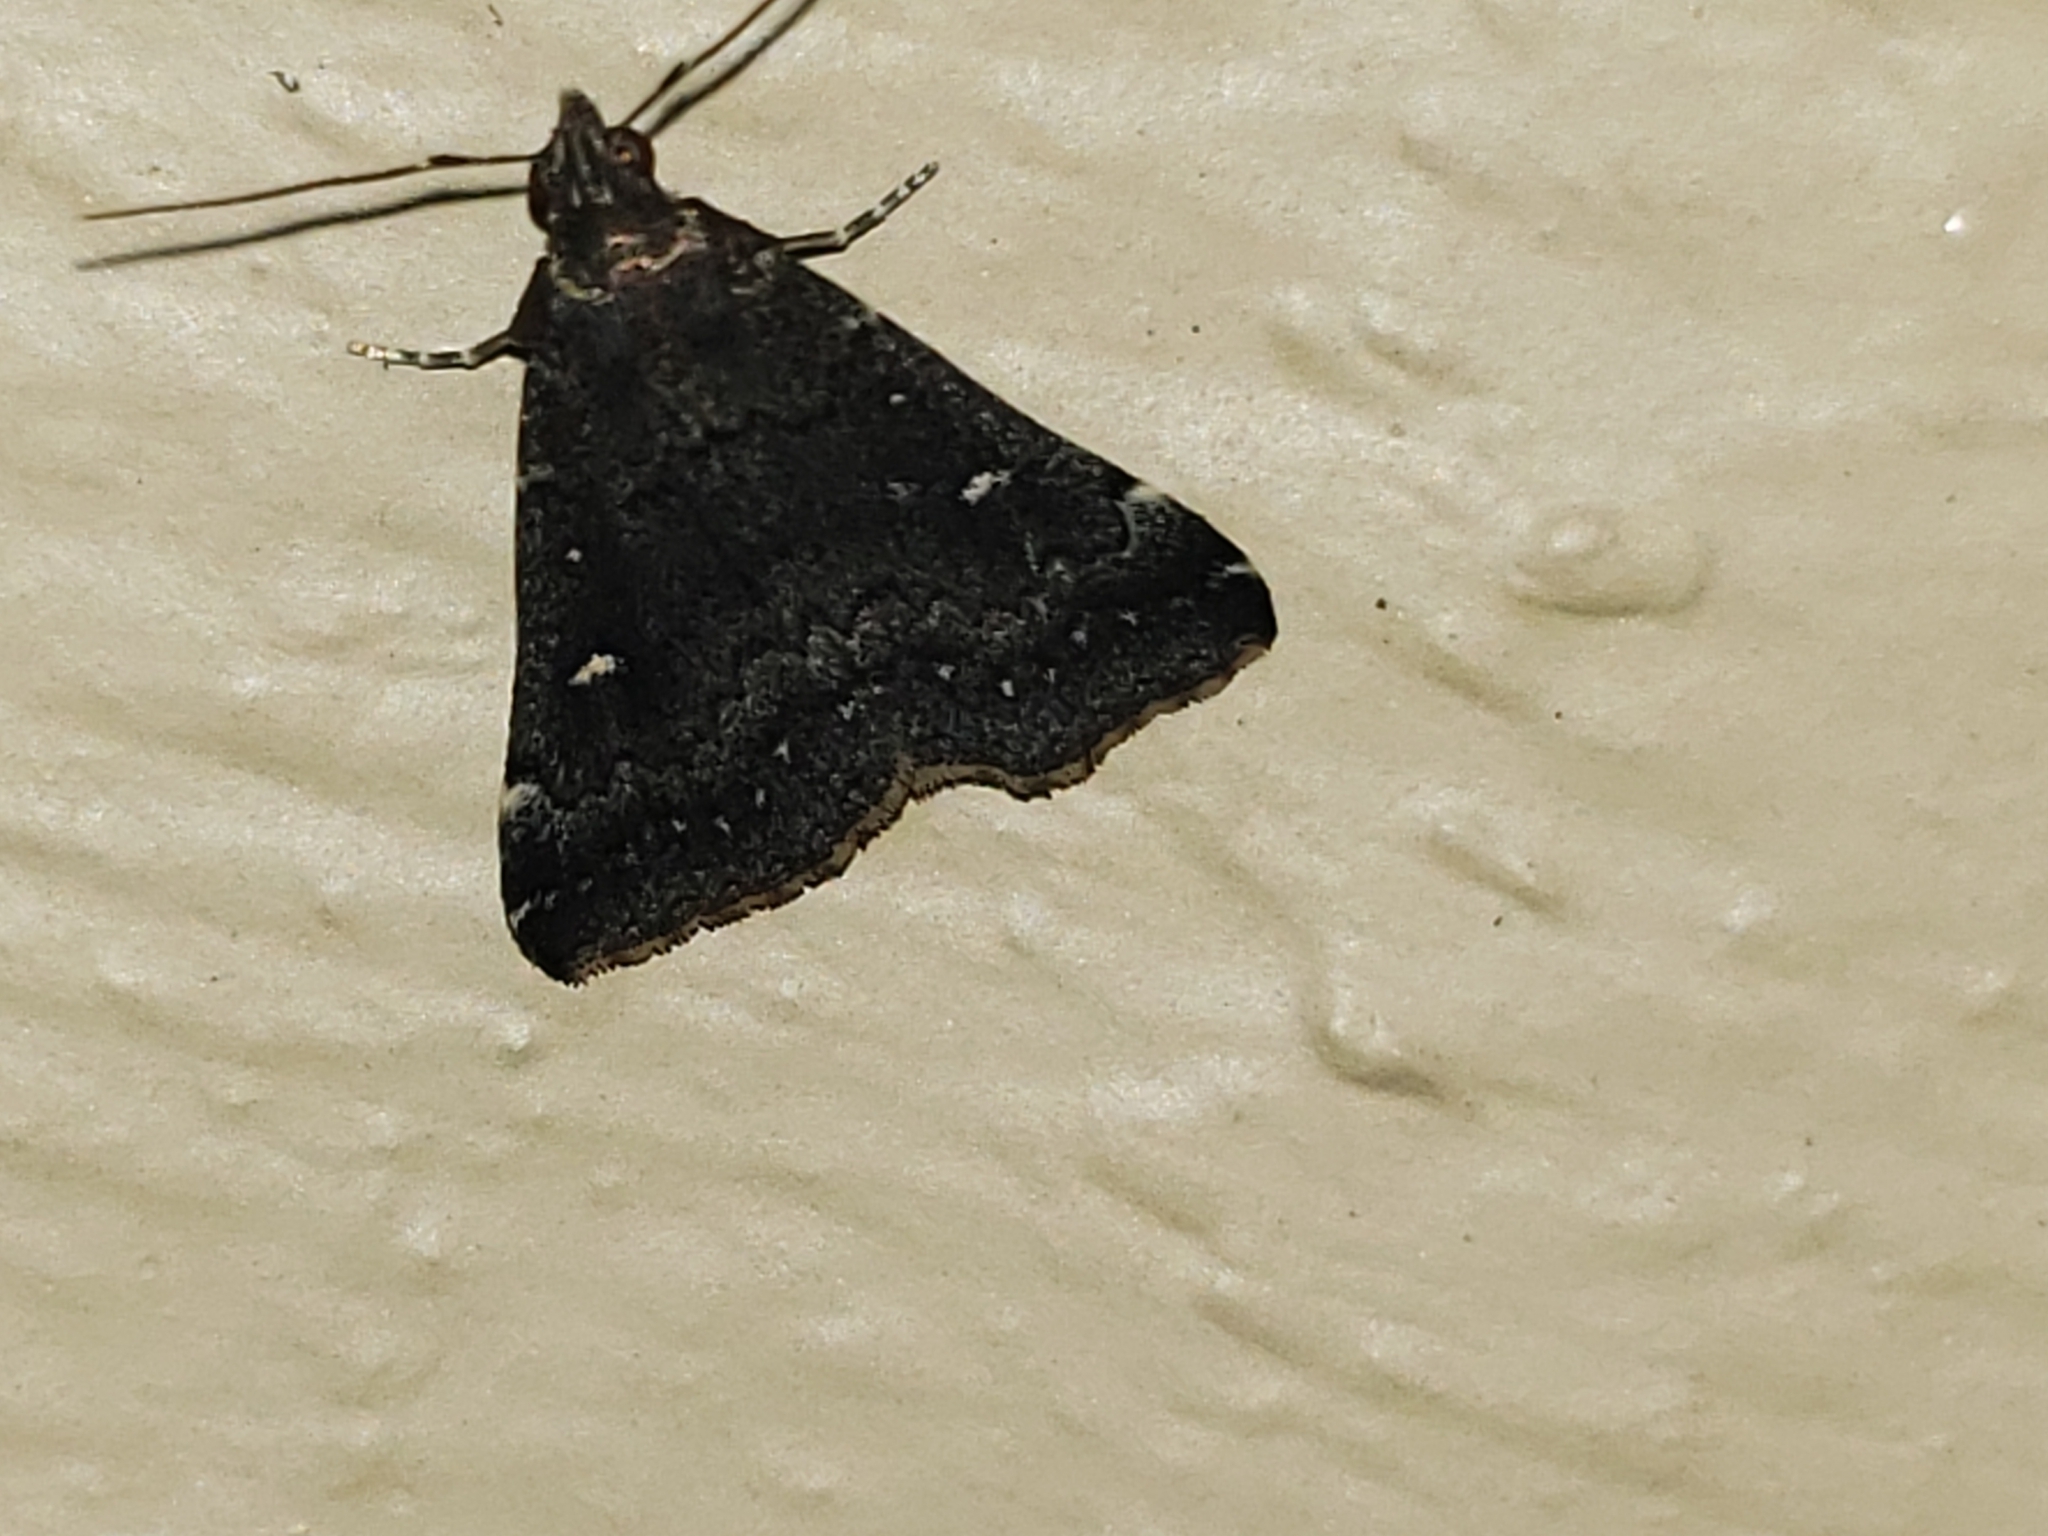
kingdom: Animalia
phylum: Arthropoda
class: Insecta
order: Lepidoptera
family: Erebidae
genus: Tetanolita
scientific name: Tetanolita mynesalis
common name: Smoky tetanolita moth
